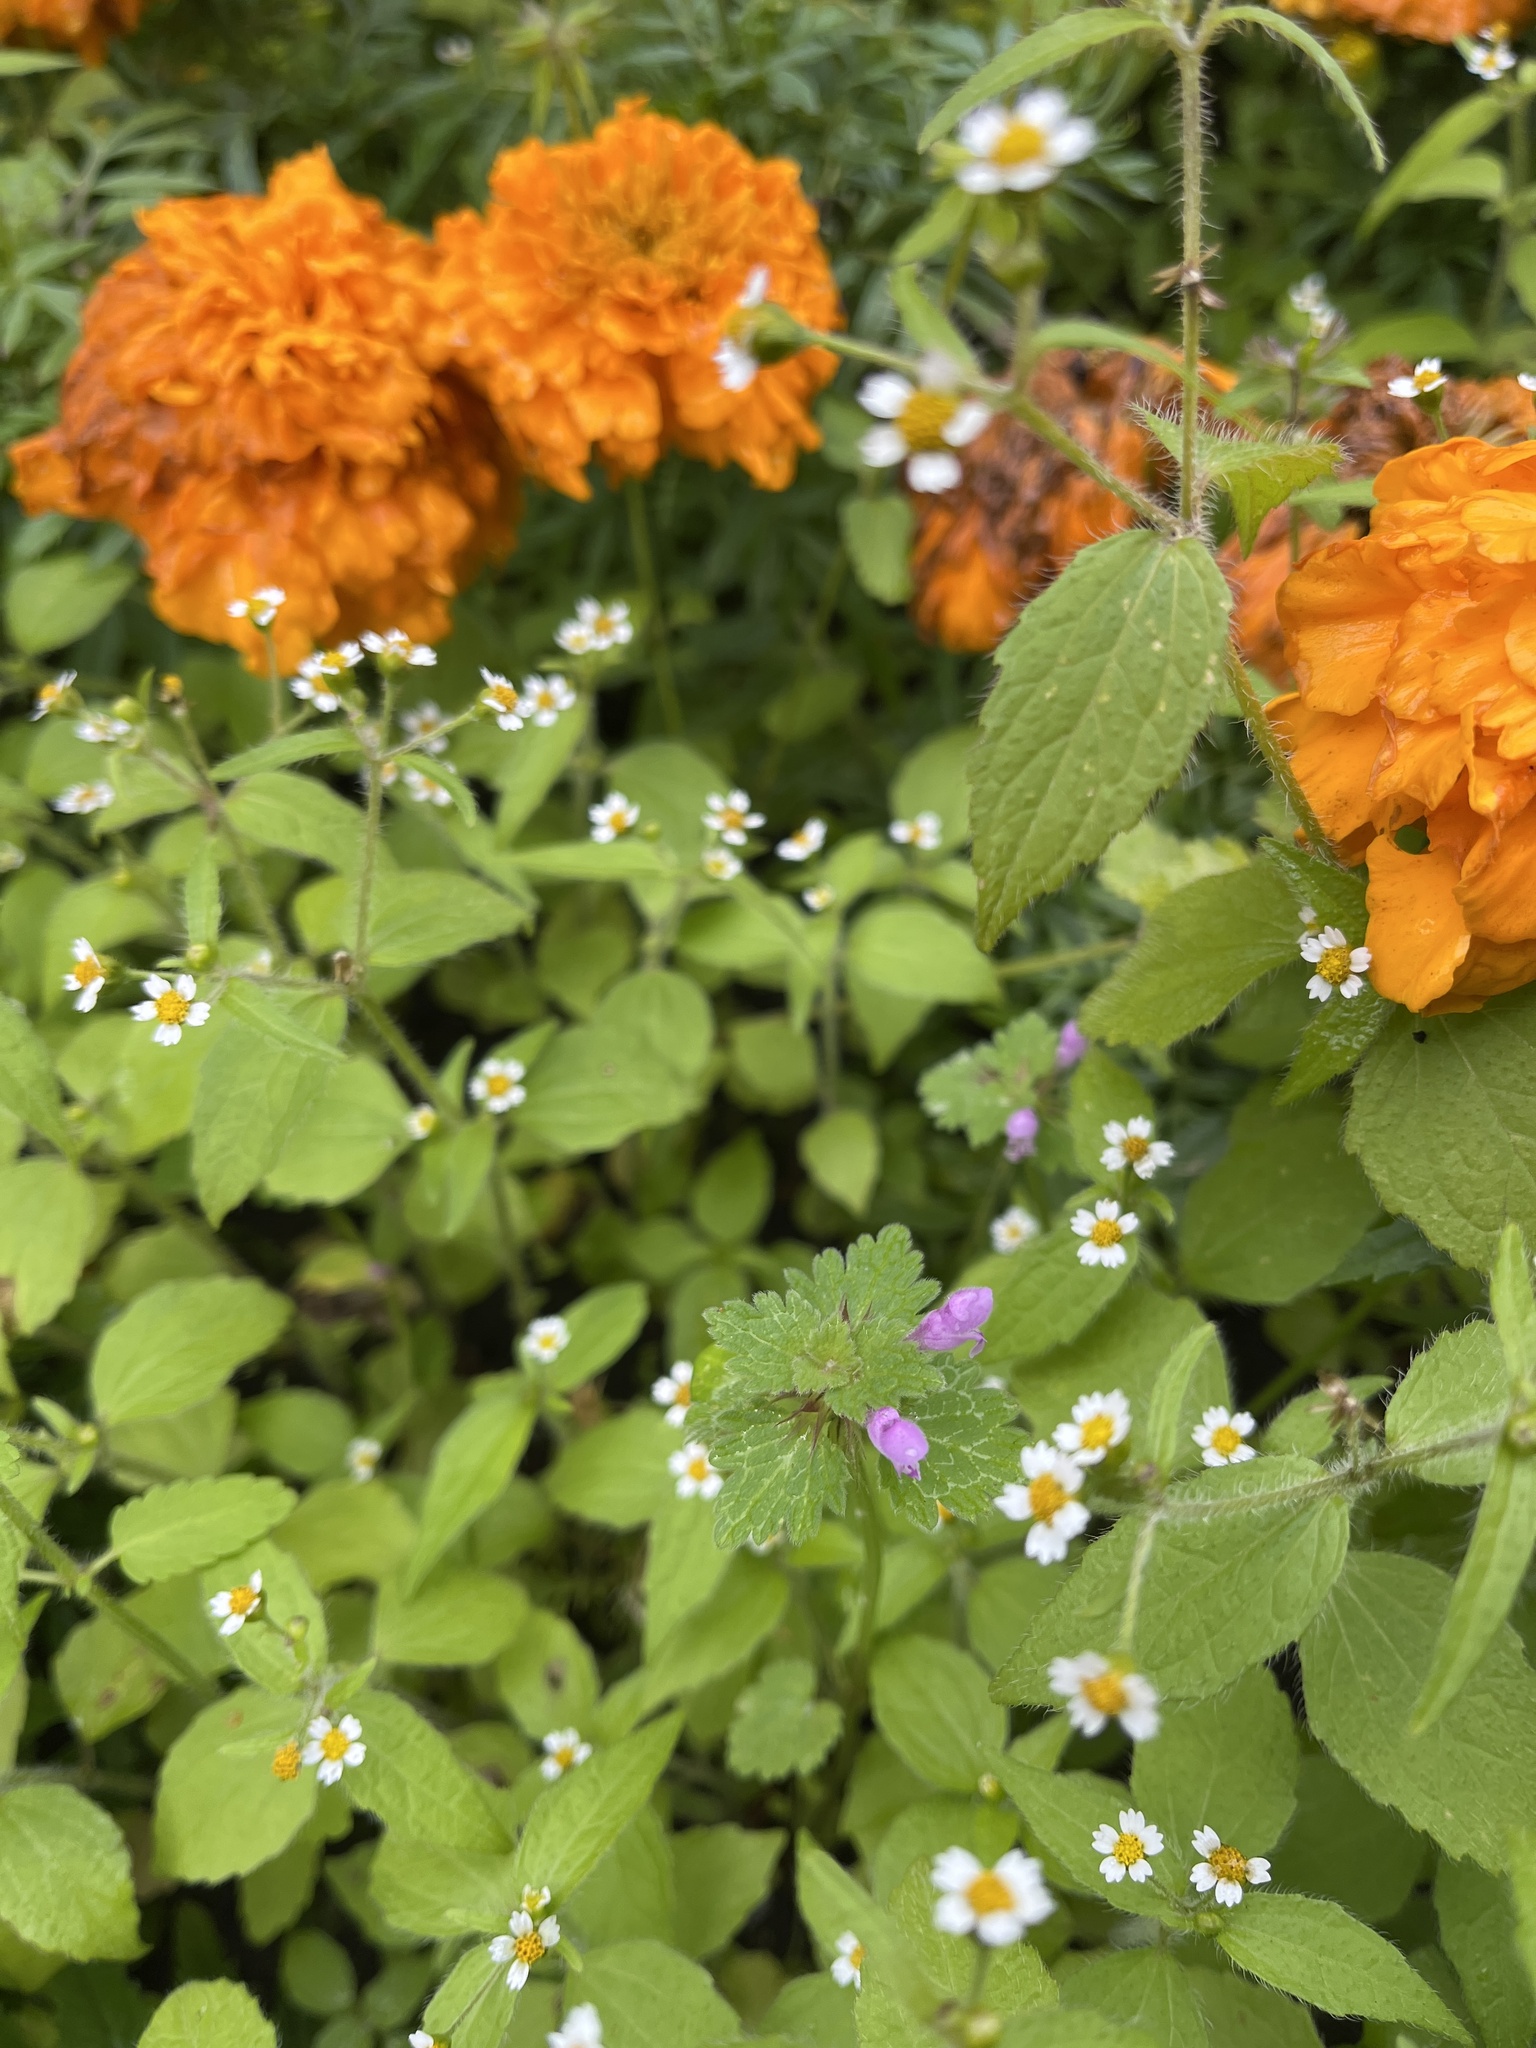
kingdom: Plantae
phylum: Tracheophyta
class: Magnoliopsida
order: Lamiales
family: Lamiaceae
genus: Lamium
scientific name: Lamium hybridum
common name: Cut-leaved dead-nettle
